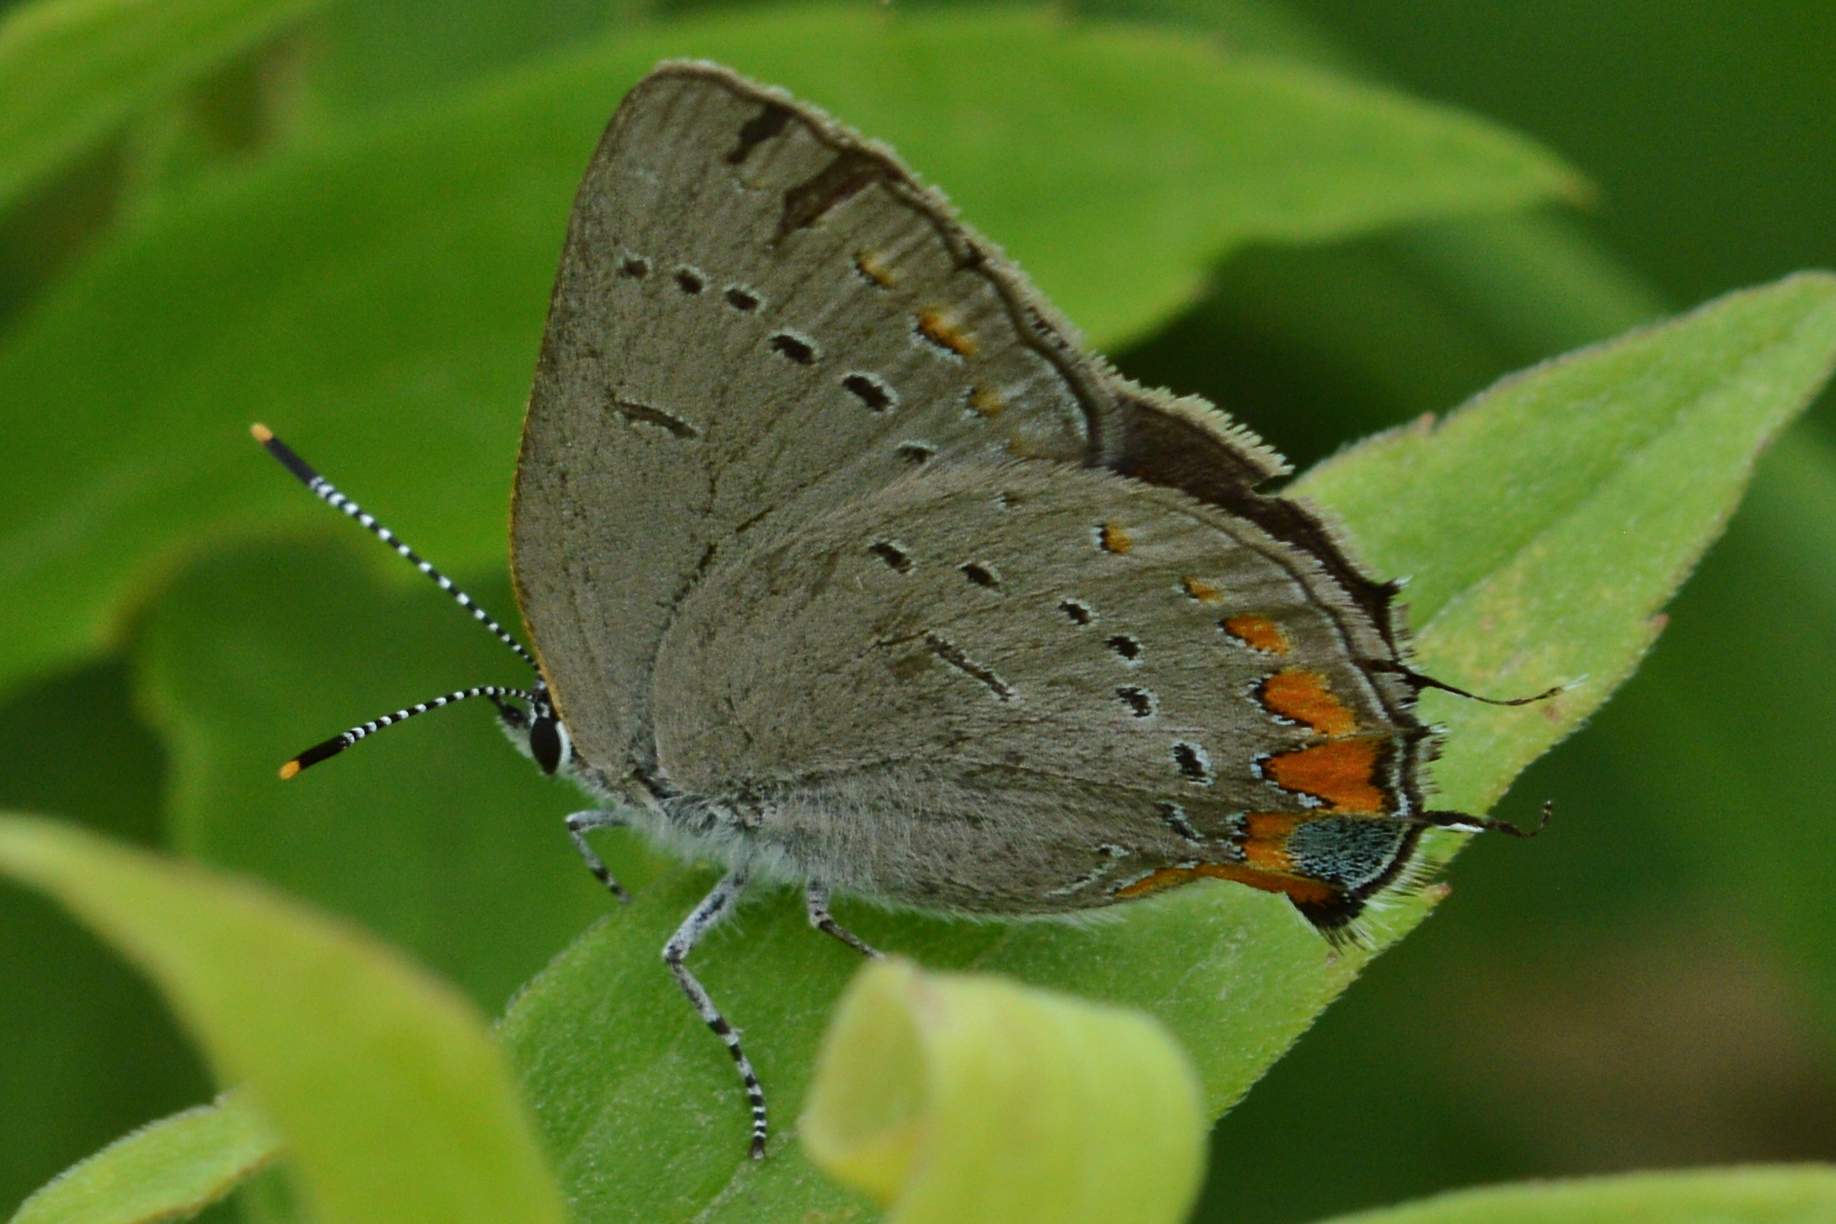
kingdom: Animalia
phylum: Arthropoda
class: Insecta
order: Lepidoptera
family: Lycaenidae
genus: Strymon
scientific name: Strymon acadica
